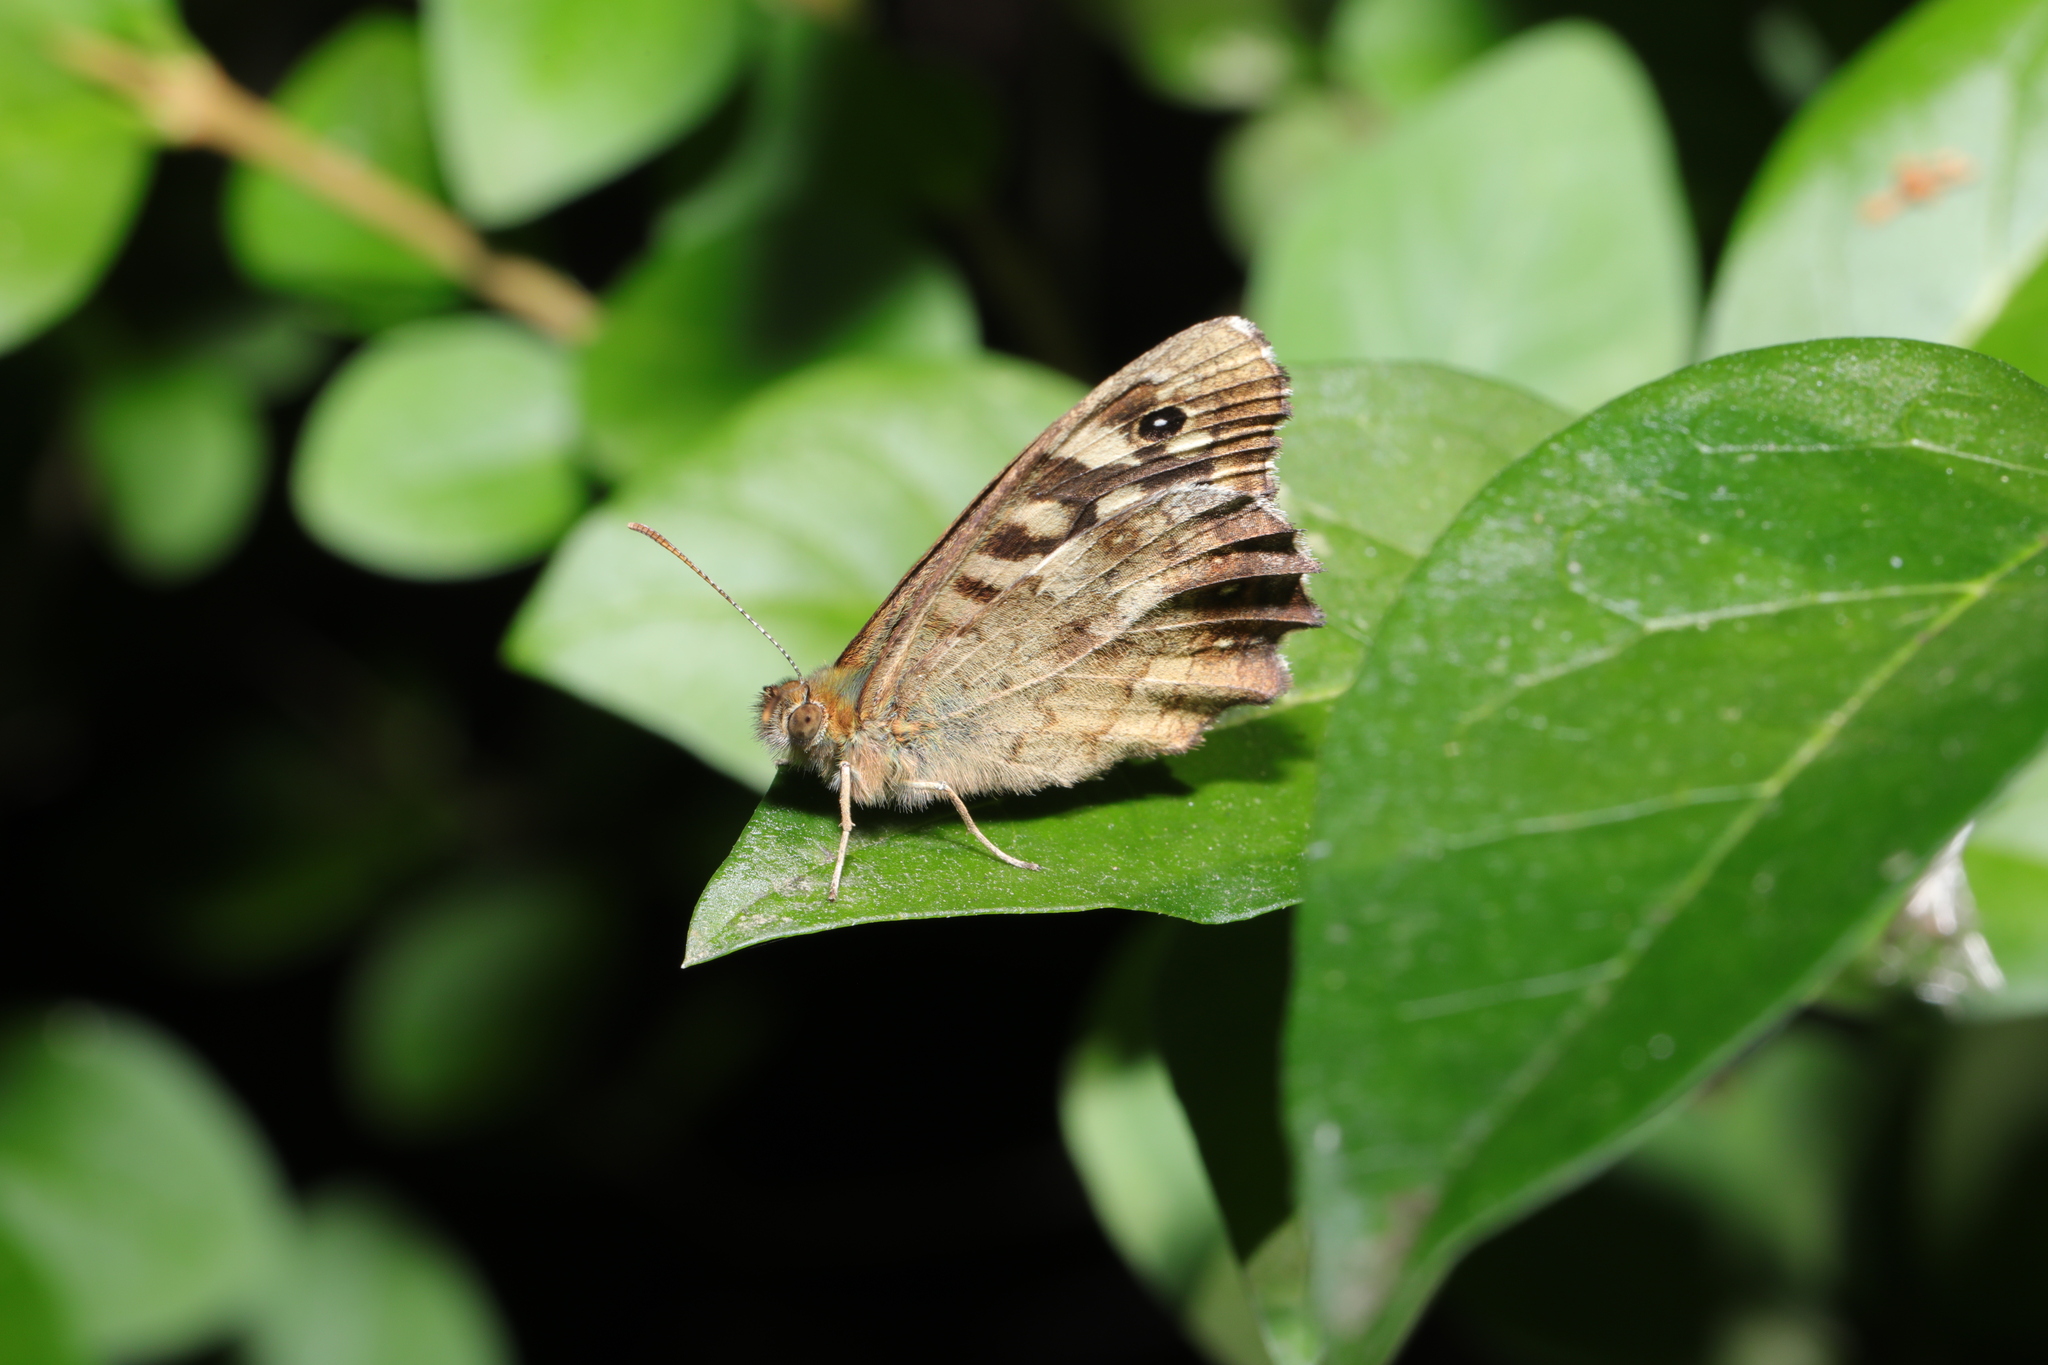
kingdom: Animalia
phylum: Arthropoda
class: Insecta
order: Lepidoptera
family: Nymphalidae
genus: Pararge
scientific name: Pararge aegeria
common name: Speckled wood
